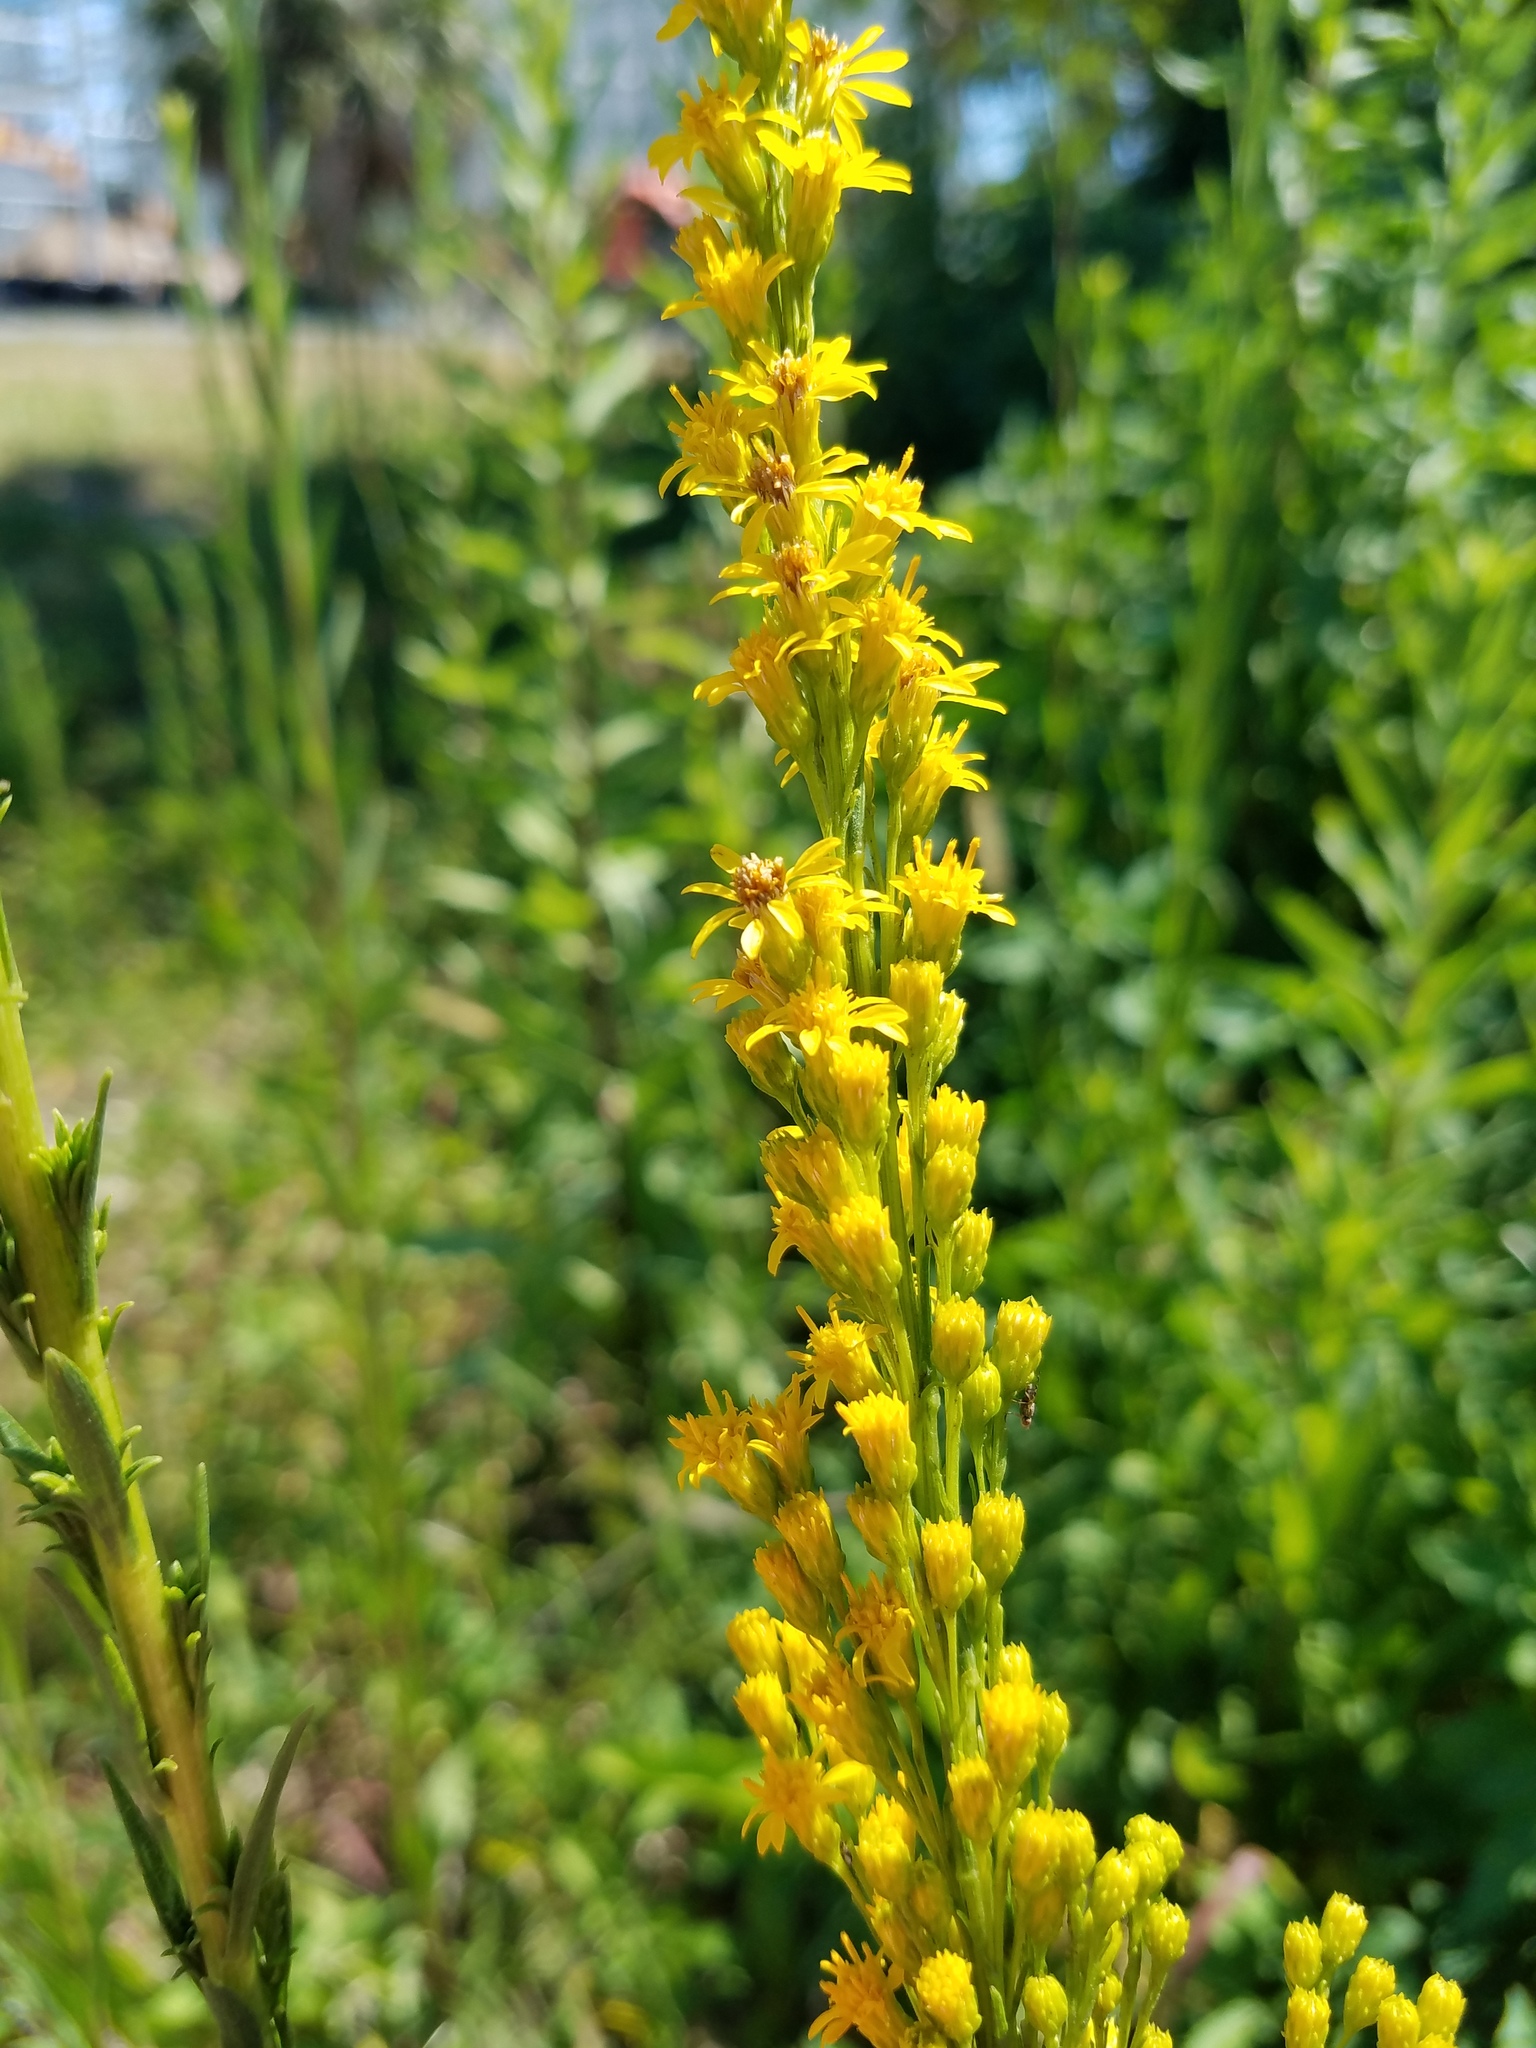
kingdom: Plantae
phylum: Tracheophyta
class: Magnoliopsida
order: Asterales
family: Asteraceae
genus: Solidago
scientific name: Solidago mexicana
